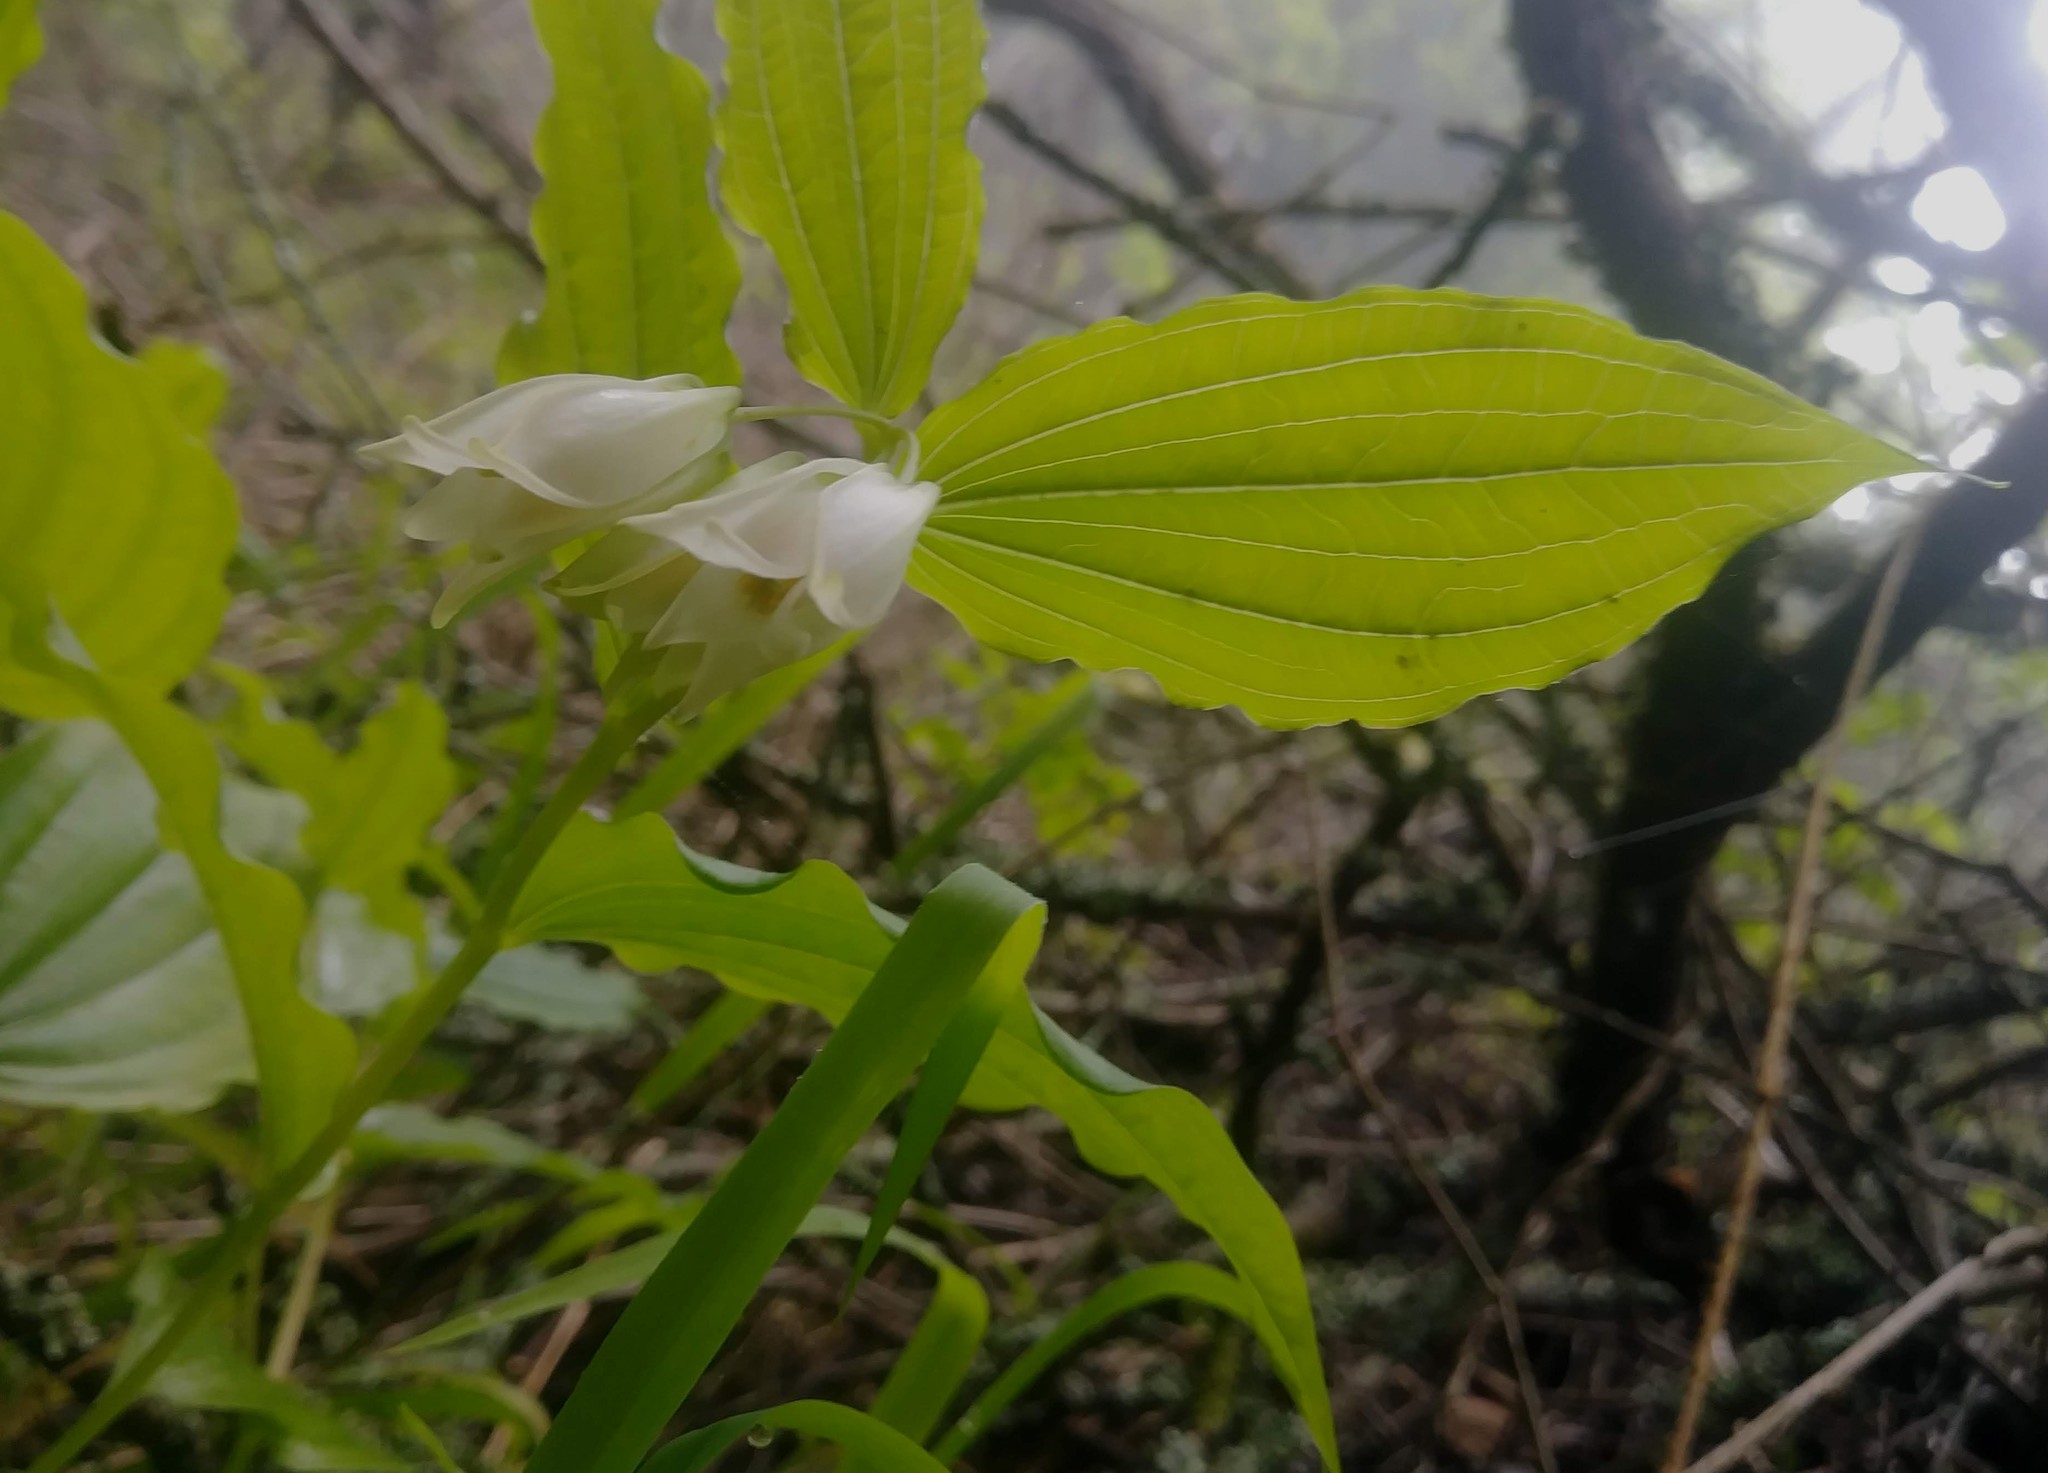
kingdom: Plantae
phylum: Tracheophyta
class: Liliopsida
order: Liliales
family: Liliaceae
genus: Prosartes
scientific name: Prosartes smithii
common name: Fairy-lantern
